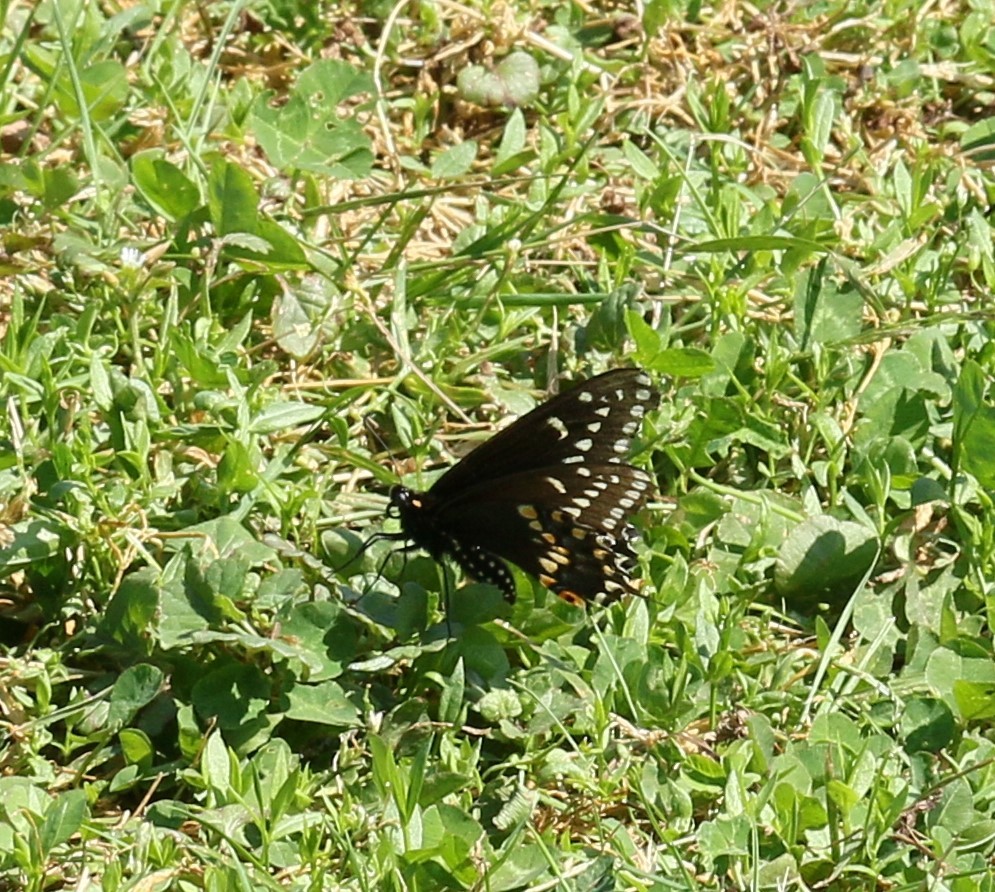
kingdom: Animalia
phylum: Arthropoda
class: Insecta
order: Lepidoptera
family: Papilionidae
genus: Papilio
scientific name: Papilio polyxenes
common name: Black swallowtail
